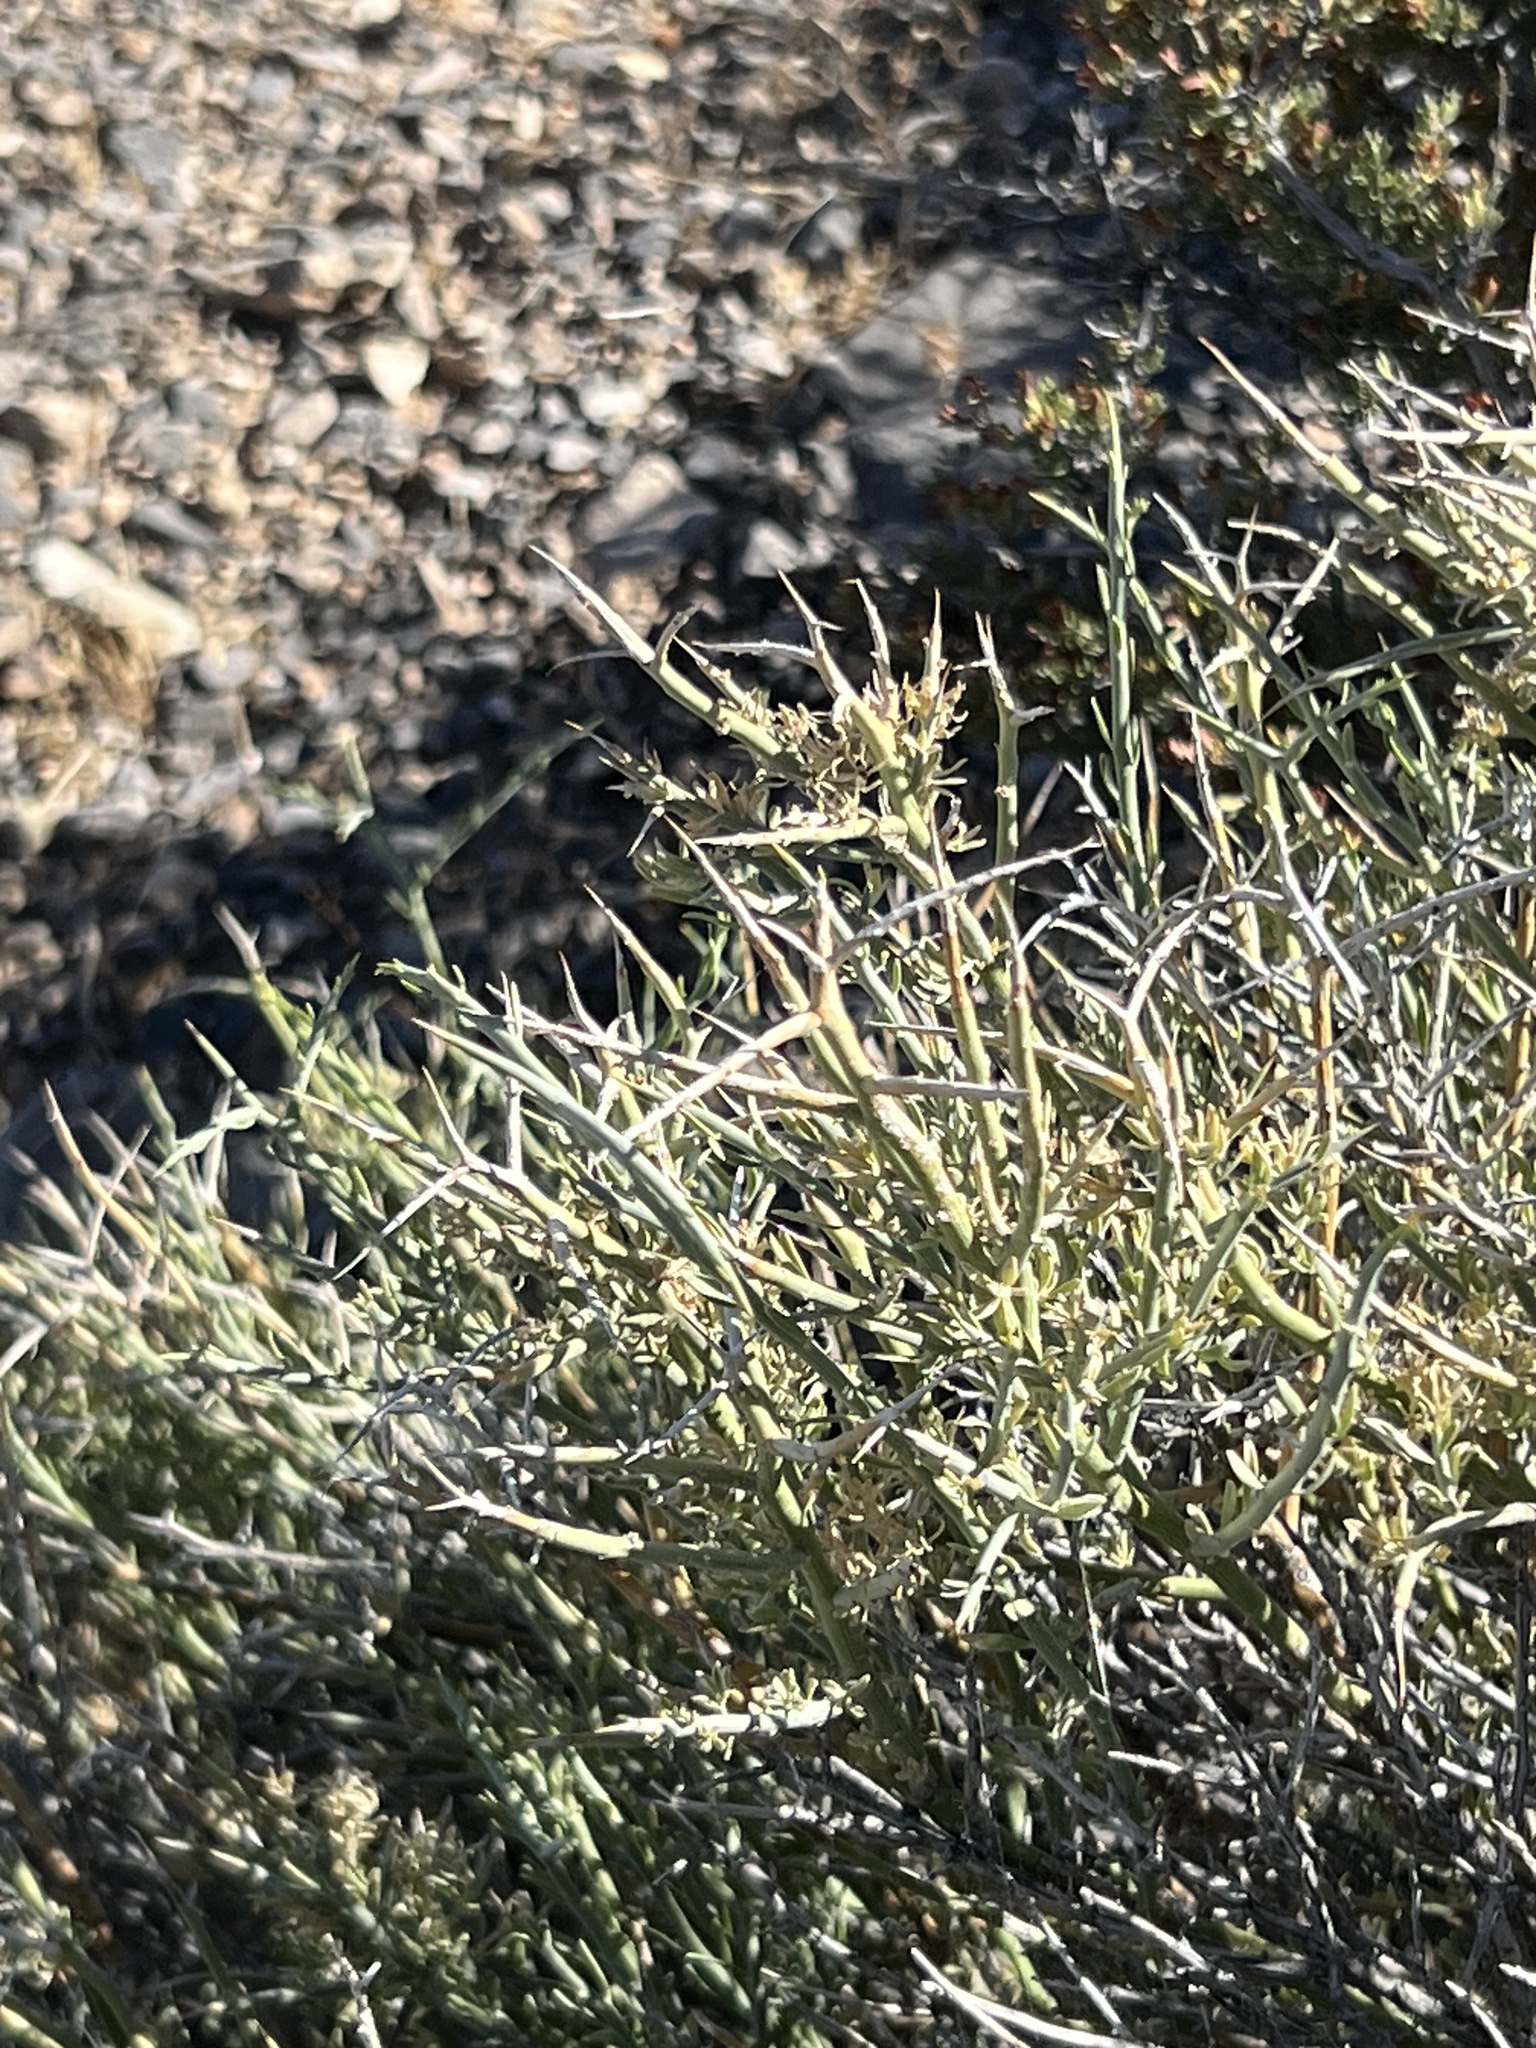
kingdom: Plantae
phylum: Tracheophyta
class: Magnoliopsida
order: Lamiales
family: Oleaceae
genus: Menodora
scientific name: Menodora spinescens
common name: Spiny menodora
